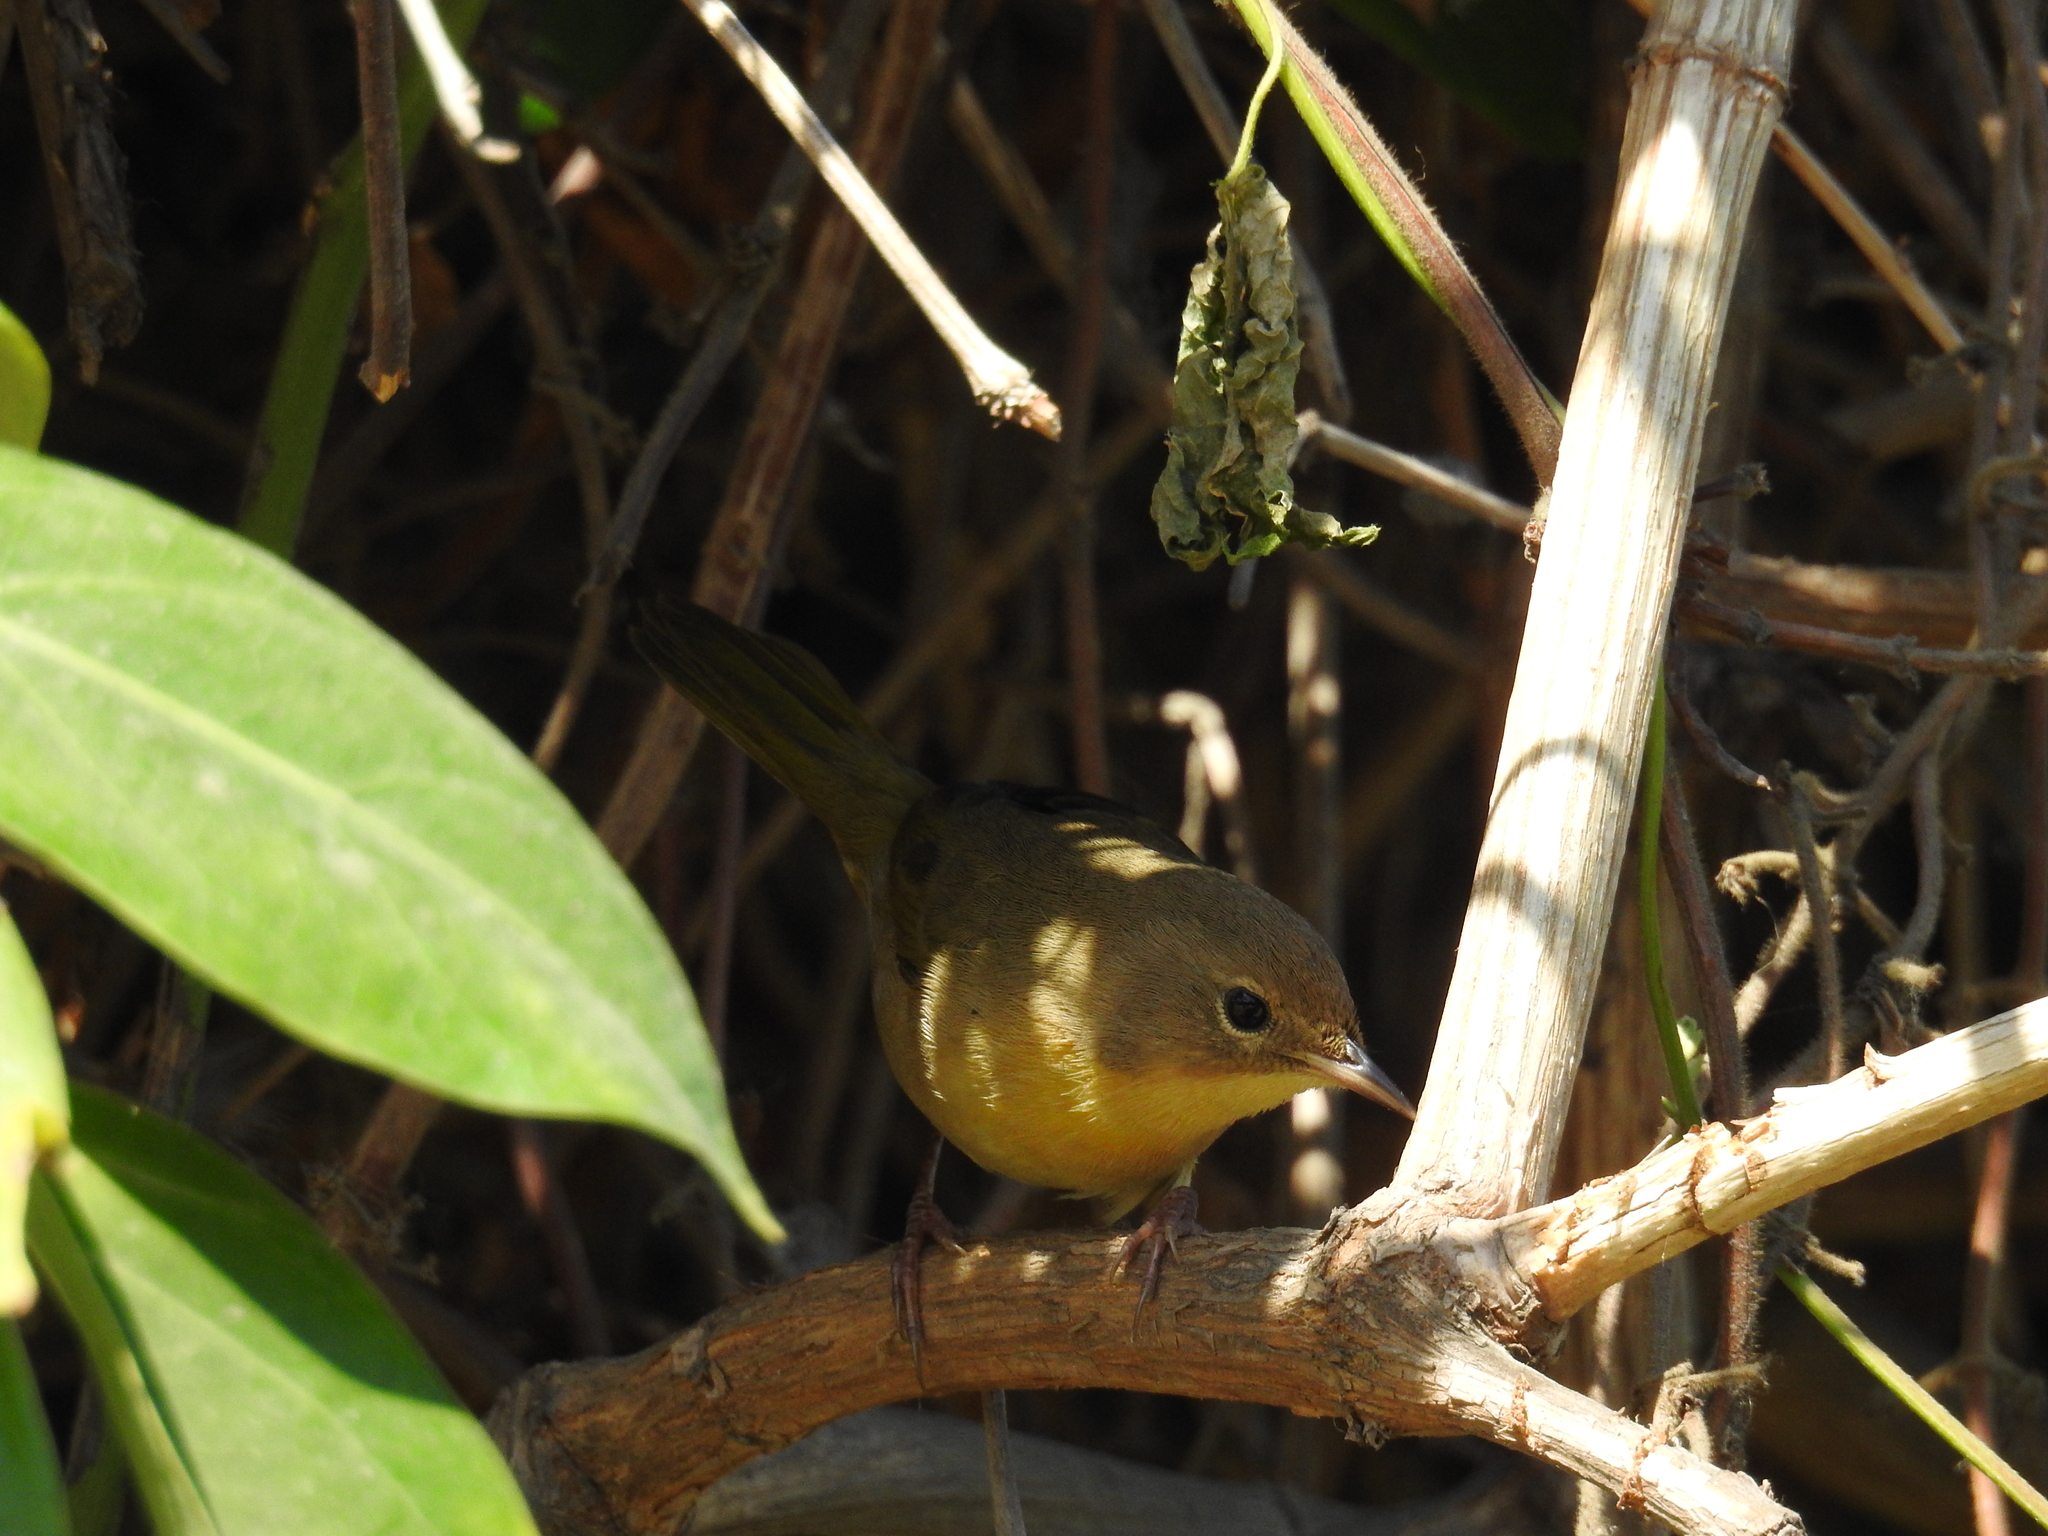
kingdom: Animalia
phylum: Chordata
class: Aves
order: Passeriformes
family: Parulidae
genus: Geothlypis
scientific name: Geothlypis trichas
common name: Common yellowthroat
